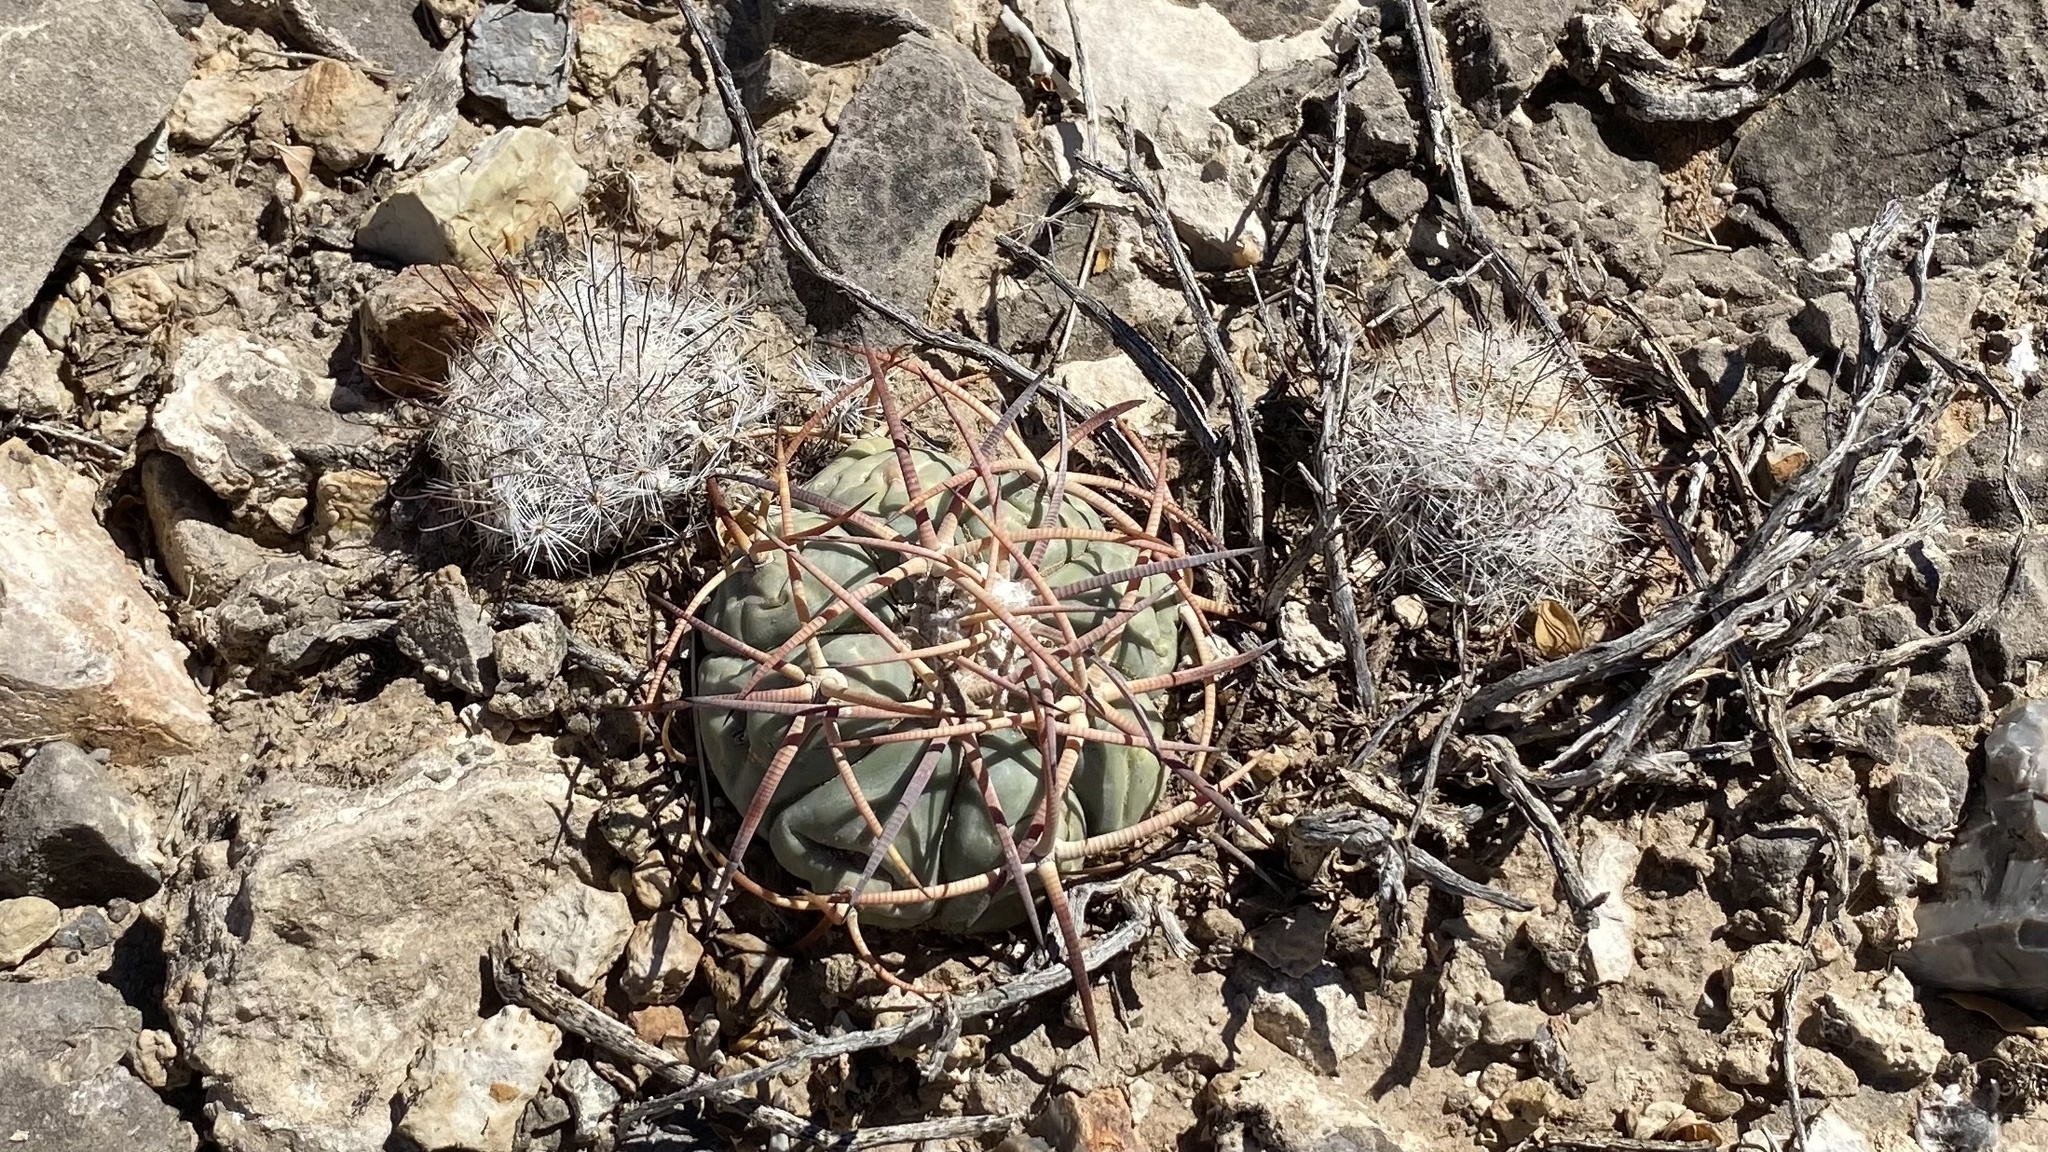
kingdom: Plantae
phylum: Tracheophyta
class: Magnoliopsida
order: Caryophyllales
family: Cactaceae
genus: Echinocactus
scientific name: Echinocactus horizonthalonius
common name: Devilshead
